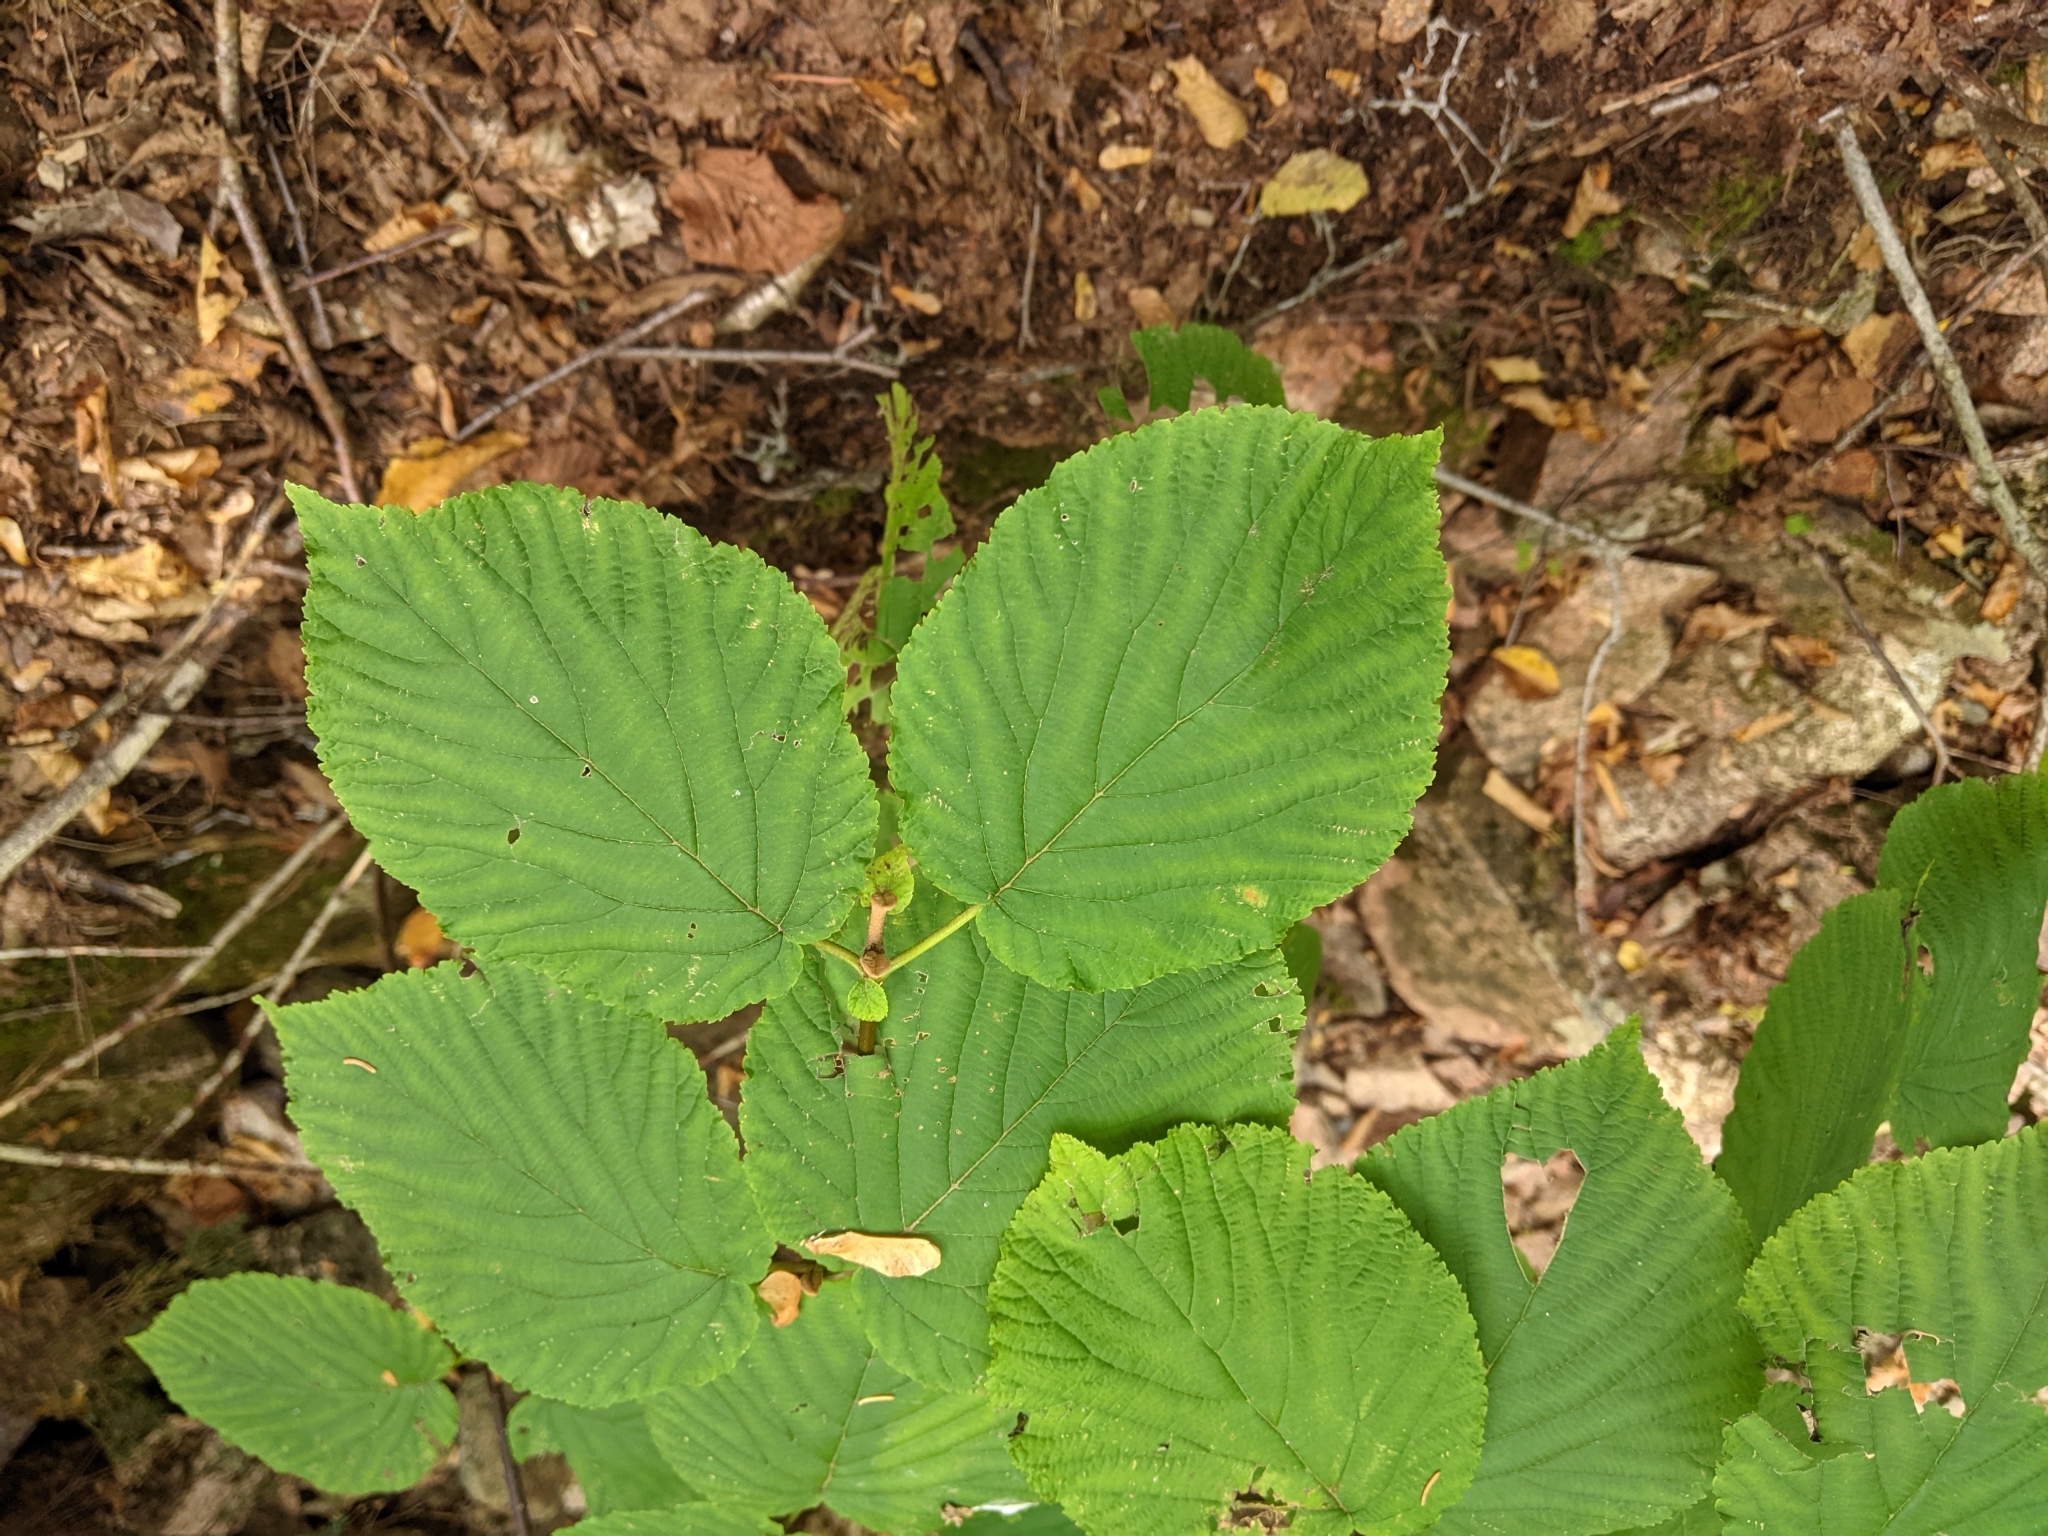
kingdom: Plantae
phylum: Tracheophyta
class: Magnoliopsida
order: Dipsacales
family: Viburnaceae
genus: Viburnum
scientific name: Viburnum lantanoides
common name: Hobblebush
